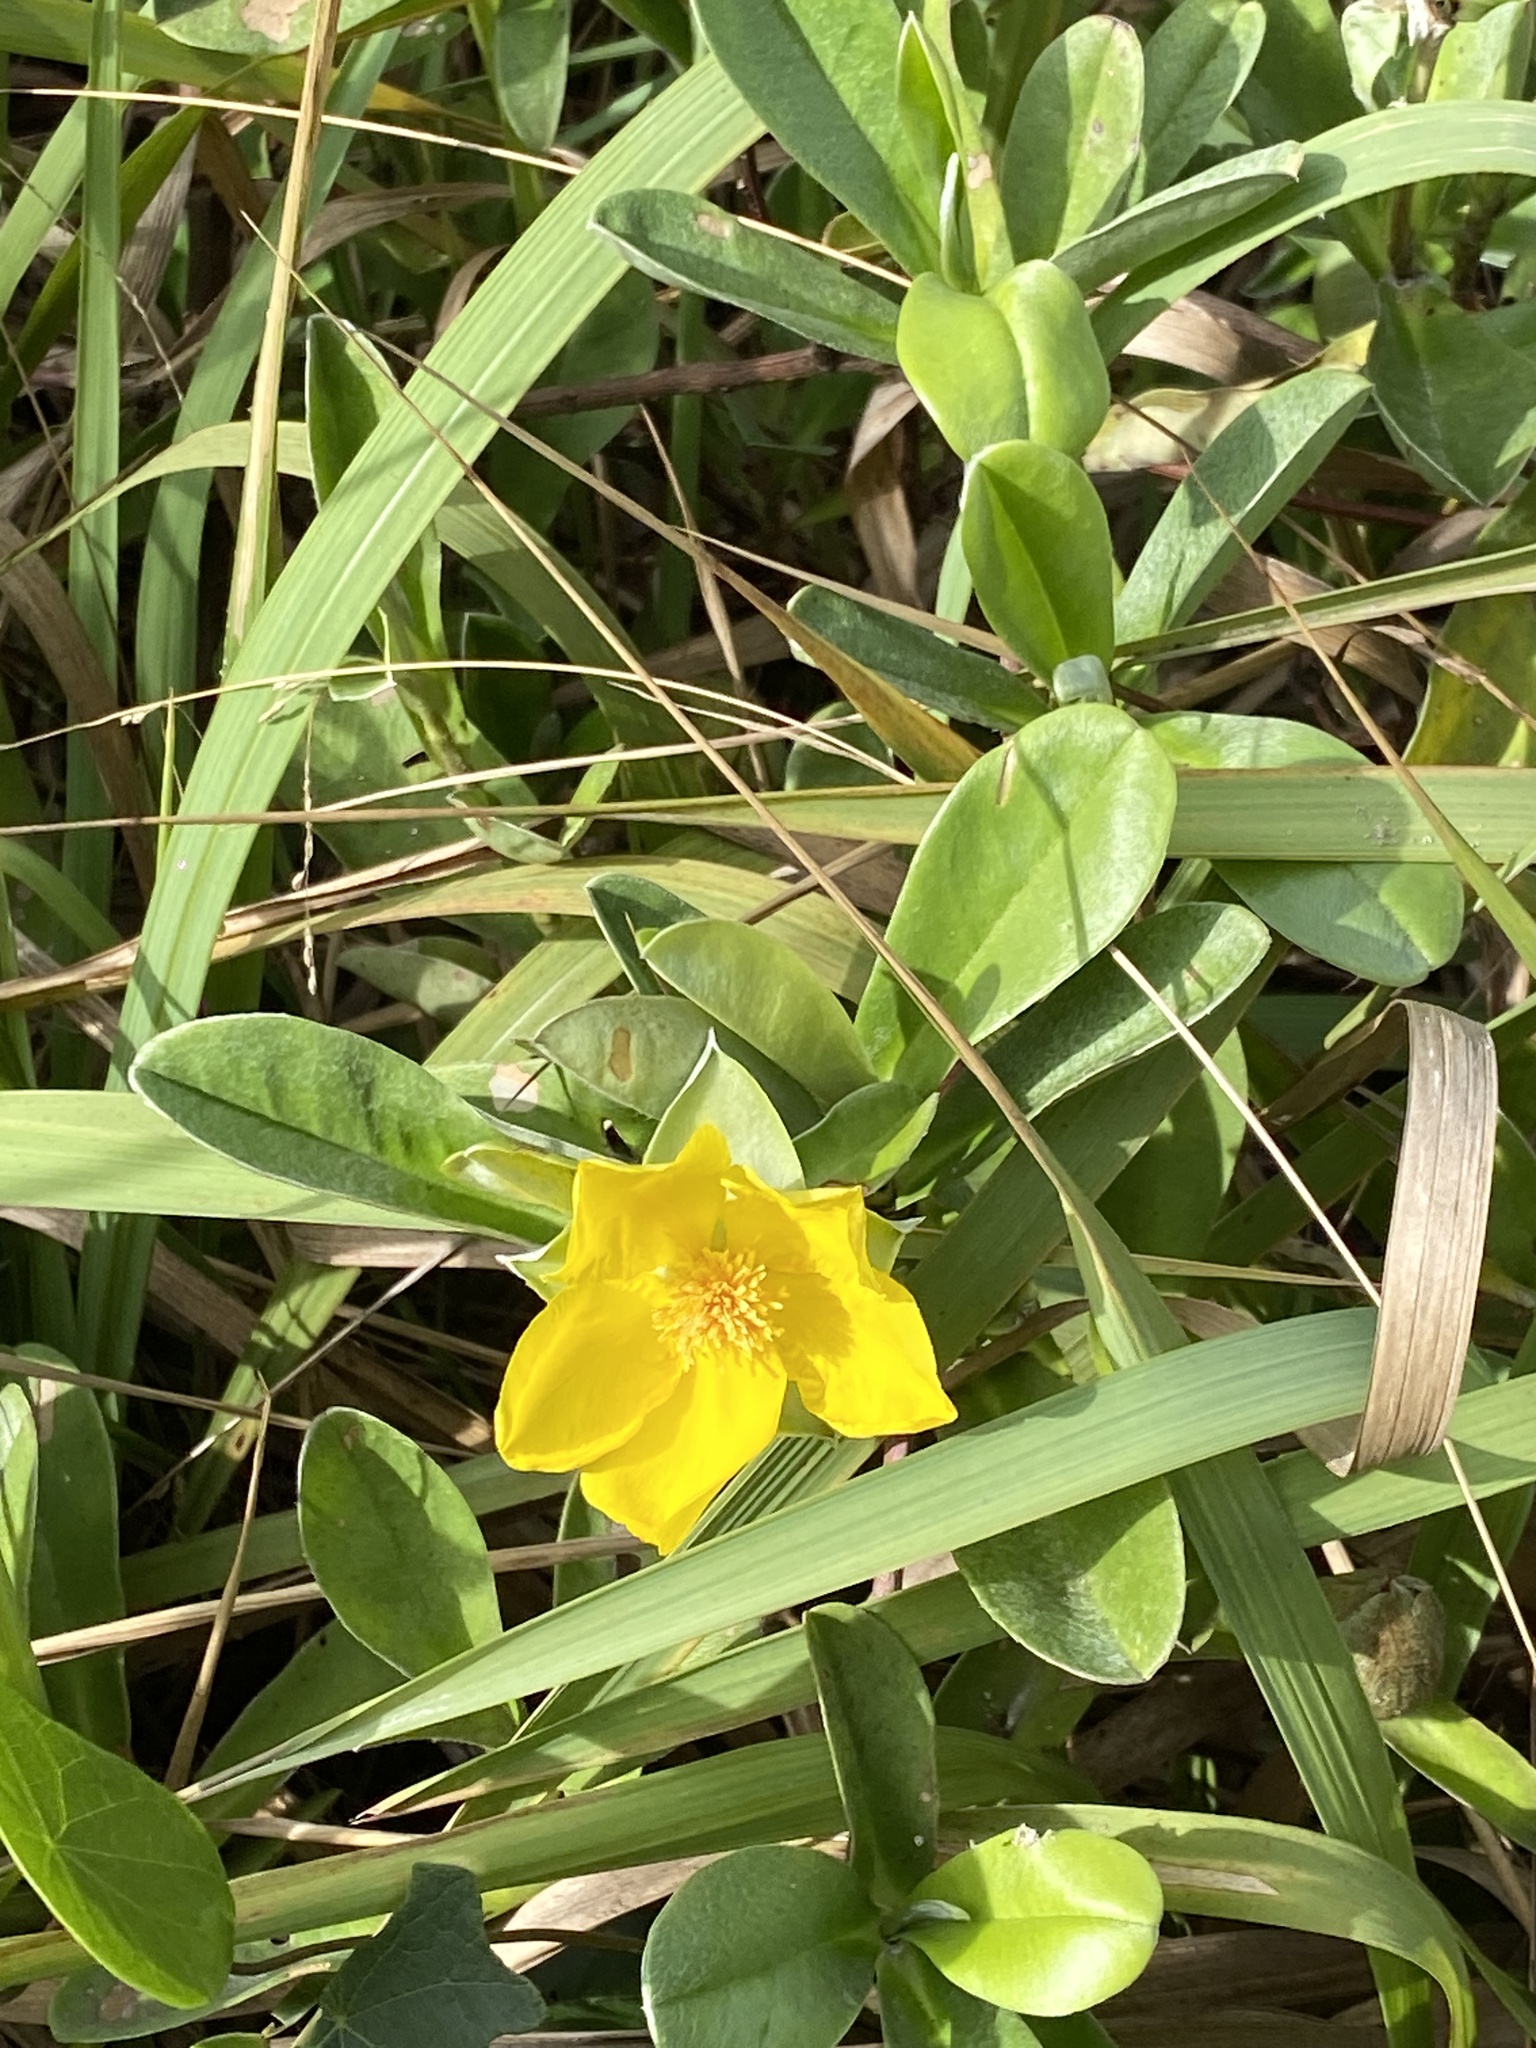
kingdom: Plantae
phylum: Tracheophyta
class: Magnoliopsida
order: Dilleniales
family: Dilleniaceae
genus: Hibbertia
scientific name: Hibbertia scandens
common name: Climbing guinea-flower
